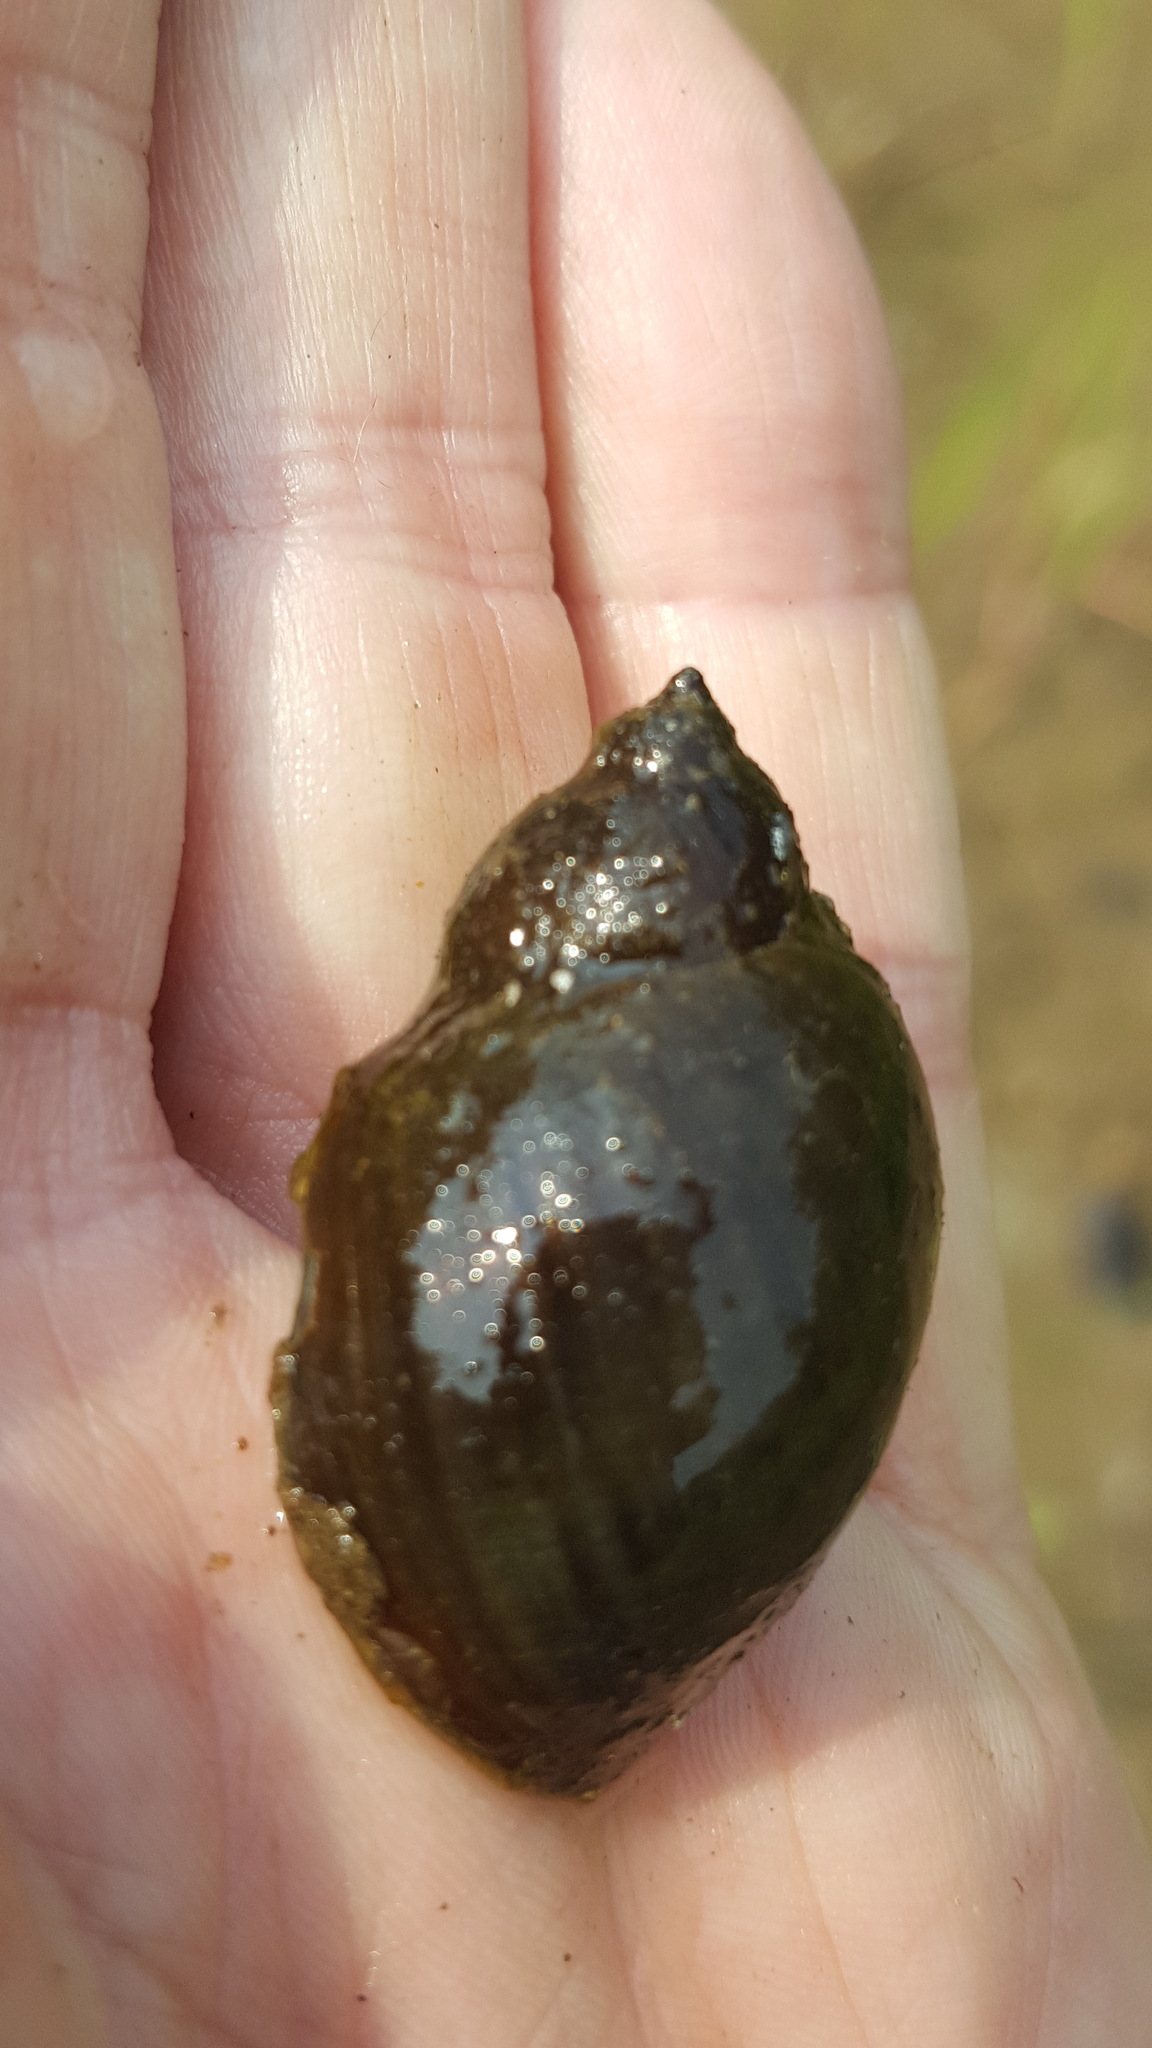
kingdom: Animalia
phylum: Mollusca
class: Gastropoda
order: Architaenioglossa
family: Viviparidae
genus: Cipangopaludina
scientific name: Cipangopaludina chinensis
